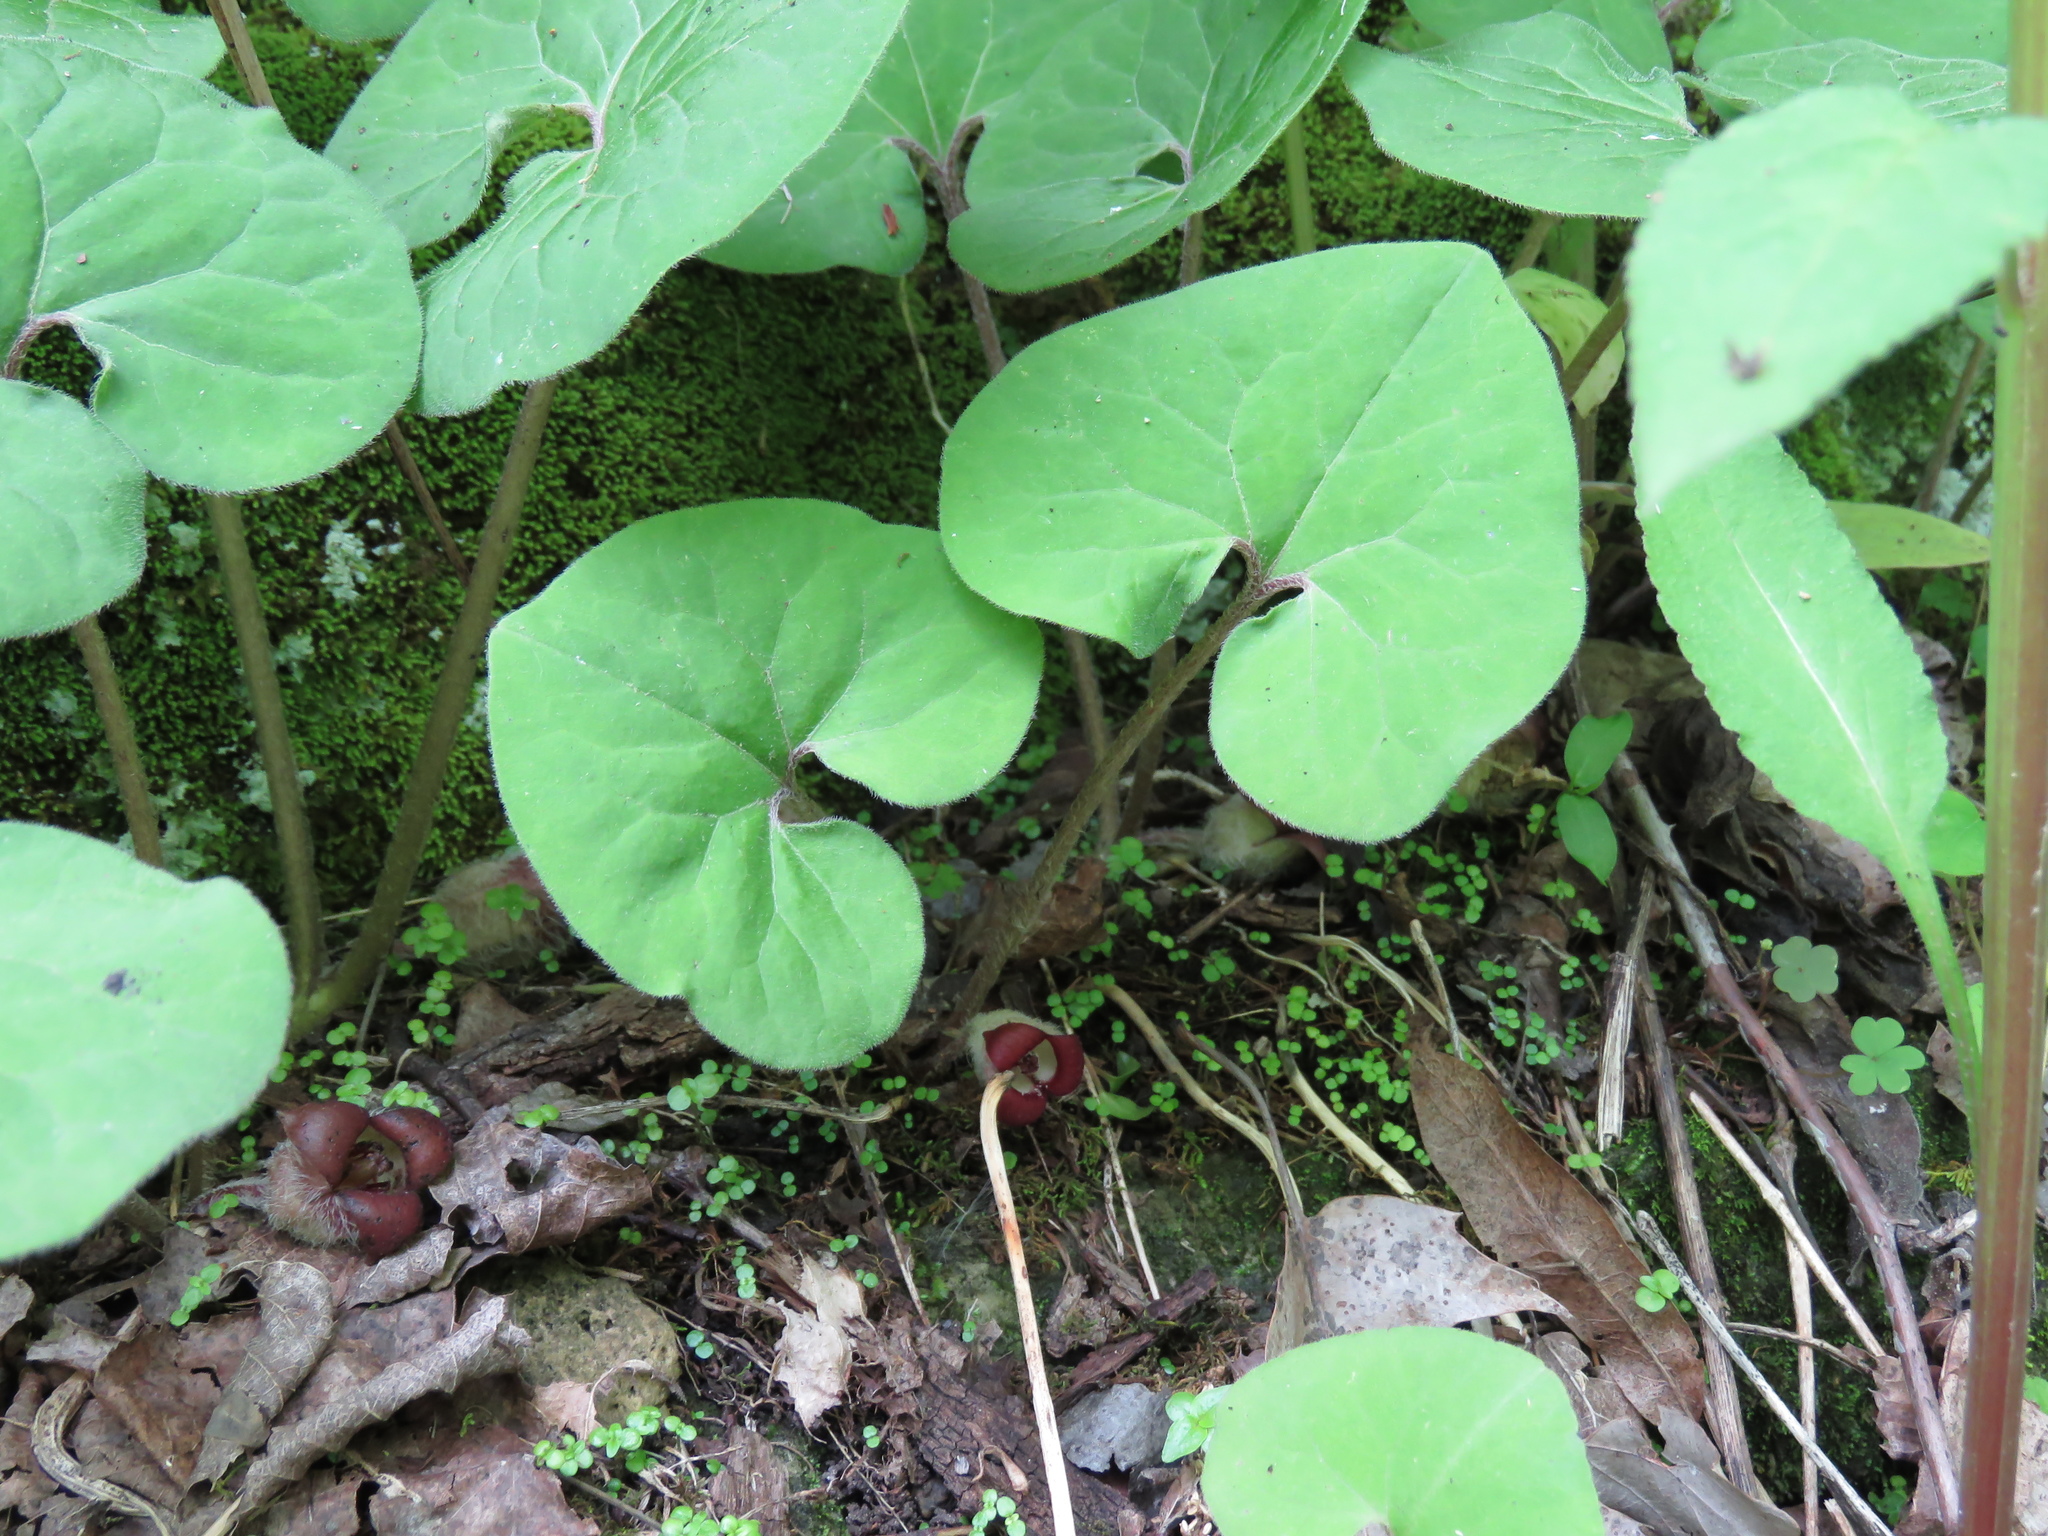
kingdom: Plantae
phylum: Tracheophyta
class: Magnoliopsida
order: Piperales
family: Aristolochiaceae
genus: Asarum
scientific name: Asarum canadense
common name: Wild ginger
